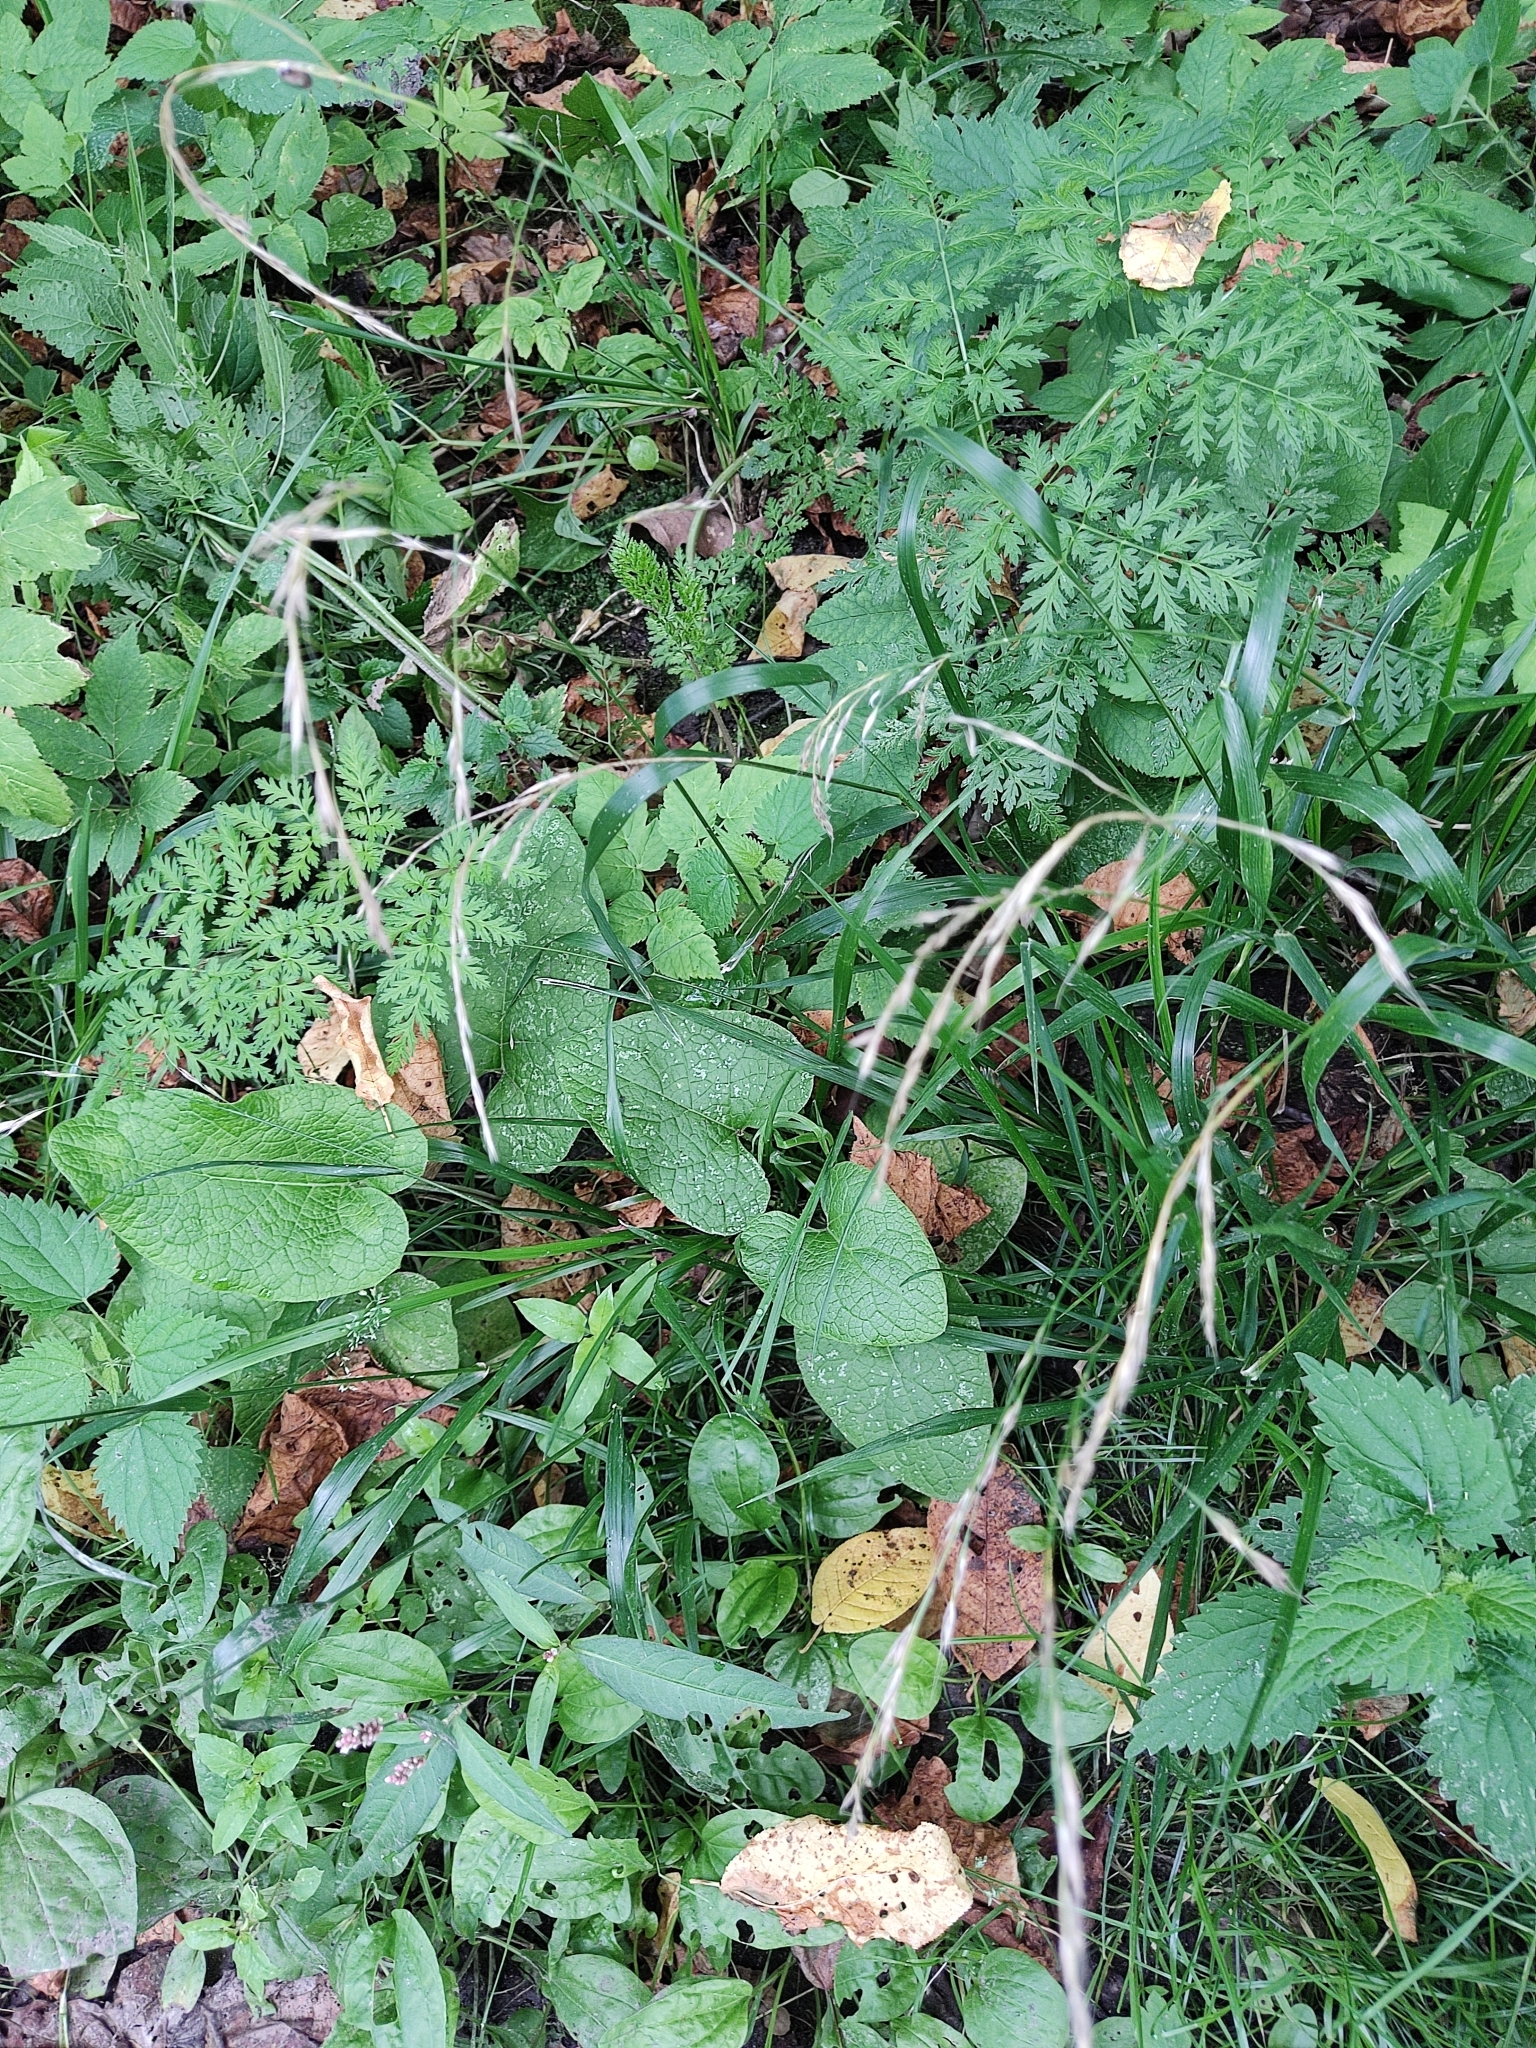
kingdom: Plantae
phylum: Tracheophyta
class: Liliopsida
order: Poales
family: Poaceae
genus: Lolium
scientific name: Lolium giganteum
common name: Giant fescue
